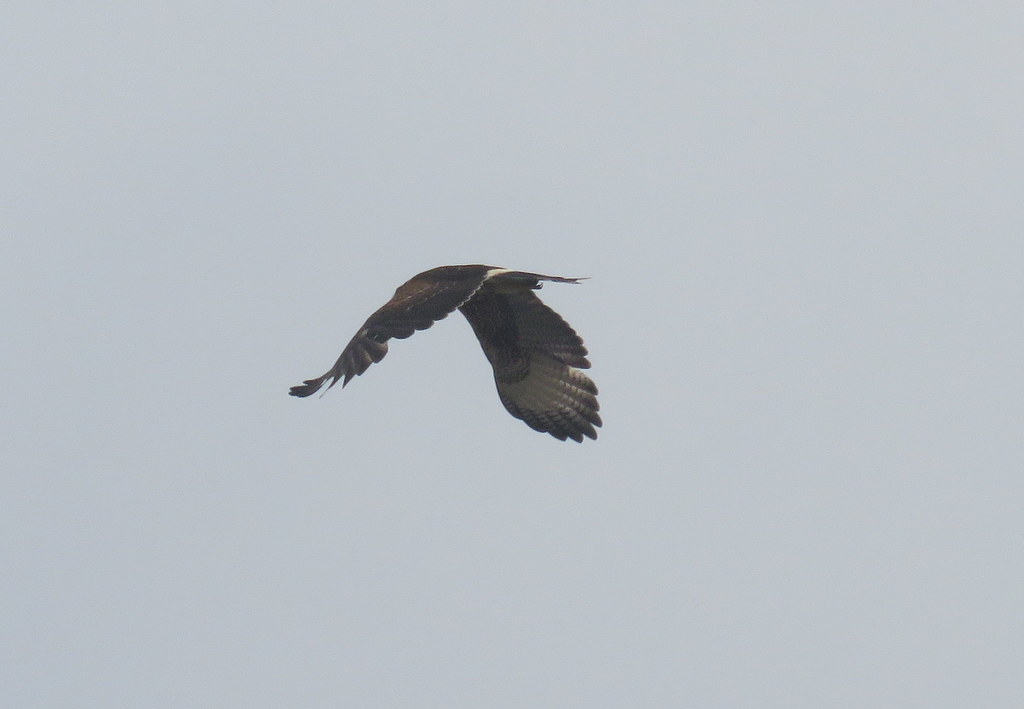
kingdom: Animalia
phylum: Chordata
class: Aves
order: Accipitriformes
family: Accipitridae
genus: Parabuteo
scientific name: Parabuteo unicinctus
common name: Harris's hawk
